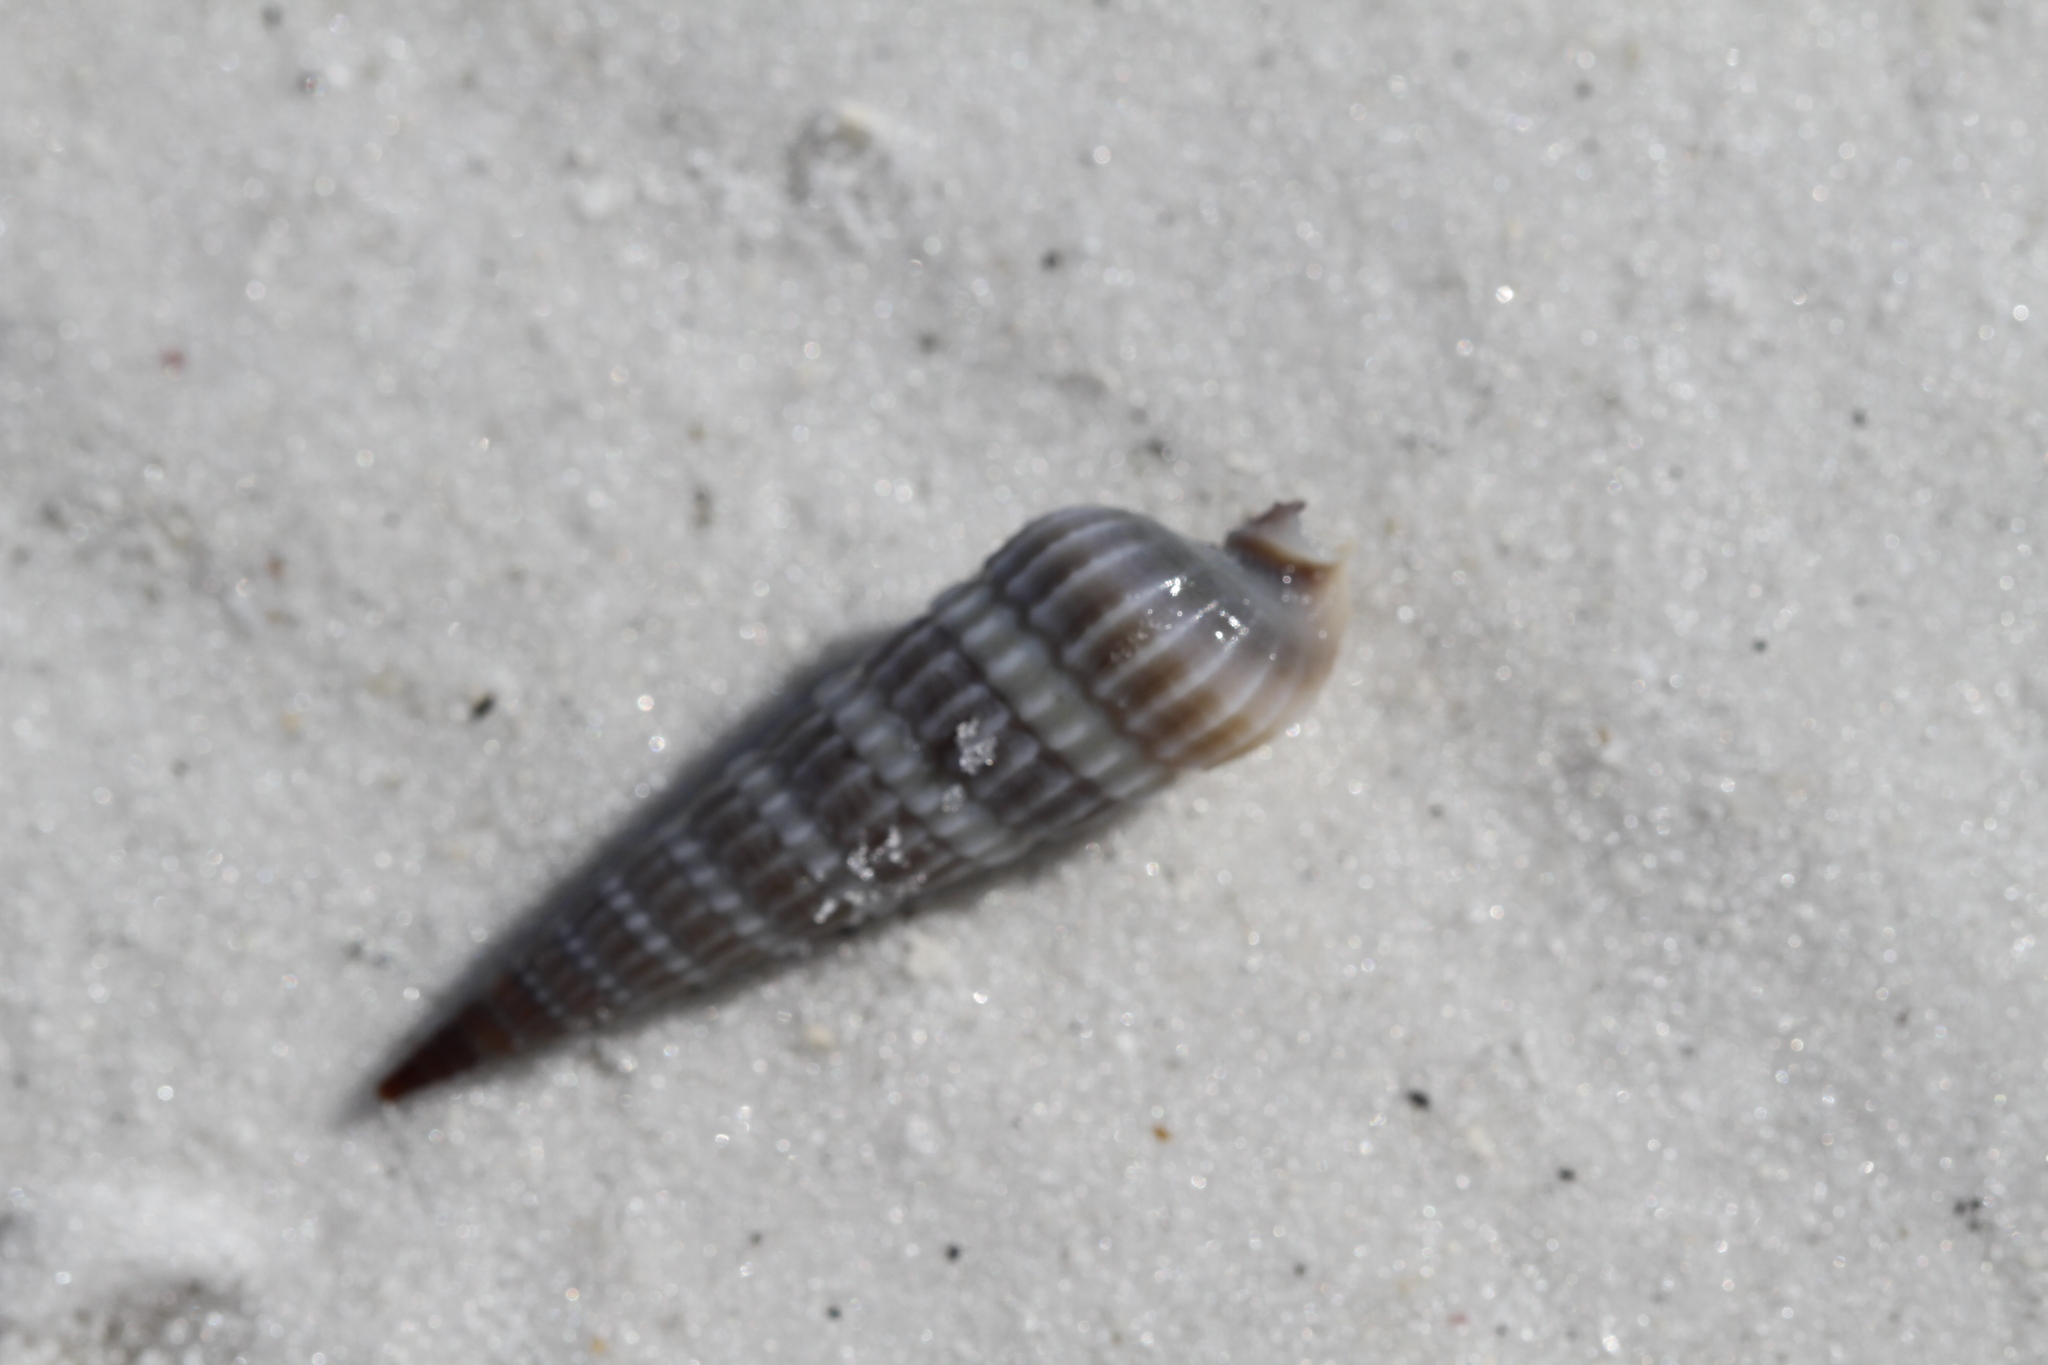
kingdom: Animalia
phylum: Mollusca
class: Gastropoda
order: Neogastropoda
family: Terebridae
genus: Neoterebra
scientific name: Neoterebra dislocata
